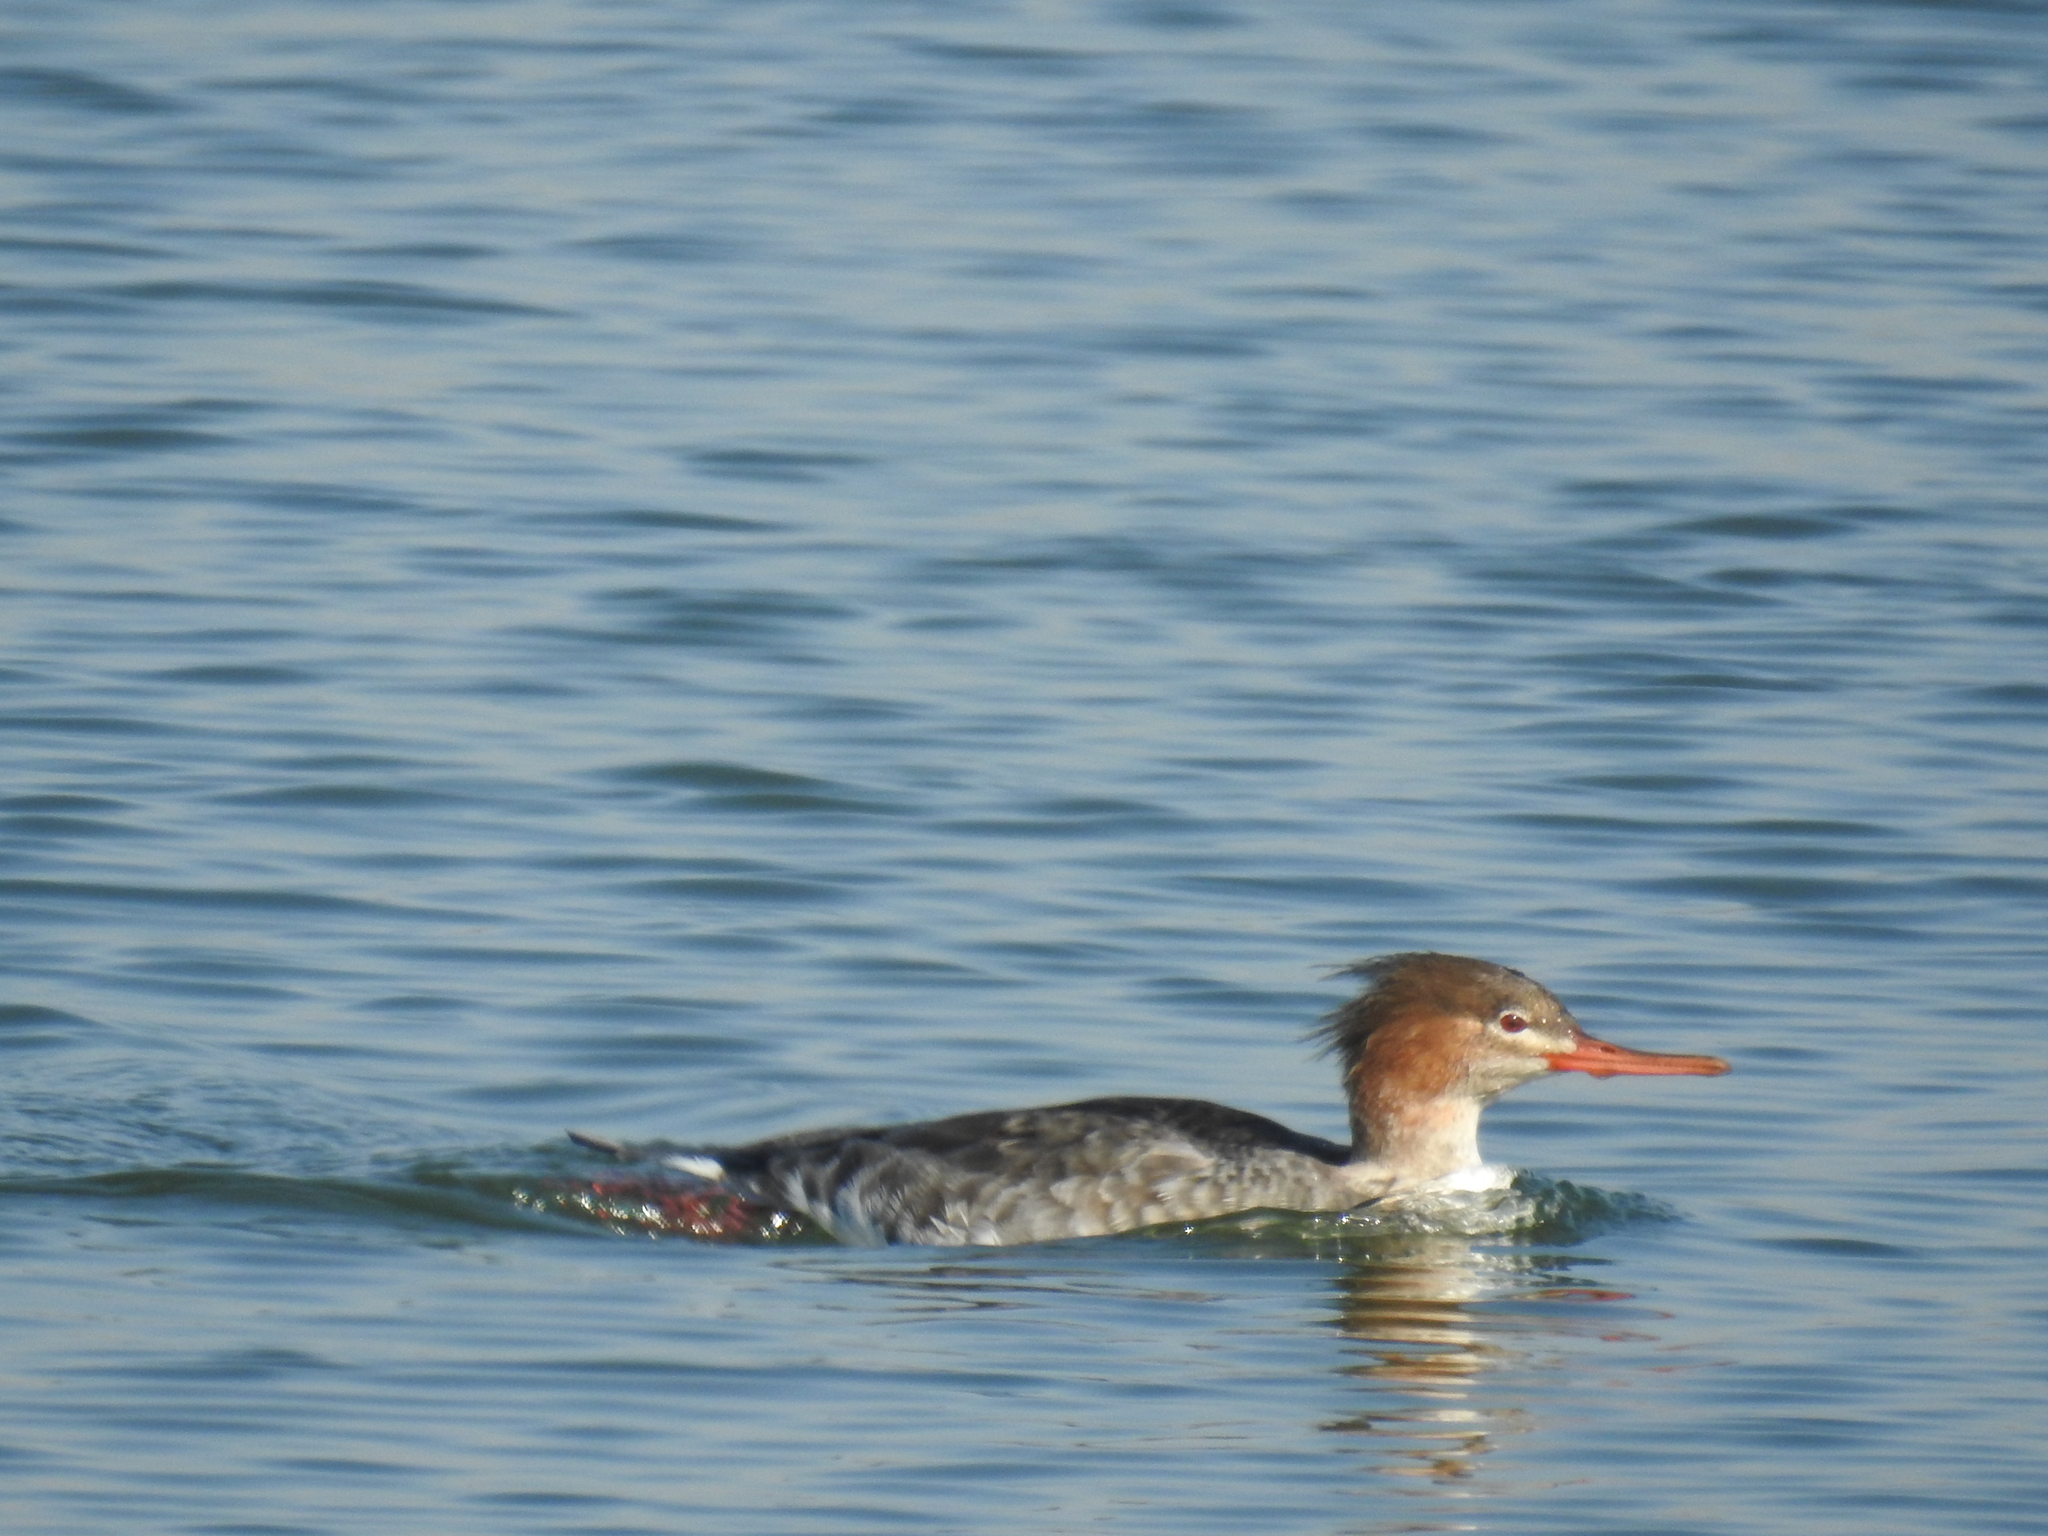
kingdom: Animalia
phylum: Chordata
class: Aves
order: Anseriformes
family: Anatidae
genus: Mergus
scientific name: Mergus serrator
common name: Red-breasted merganser
